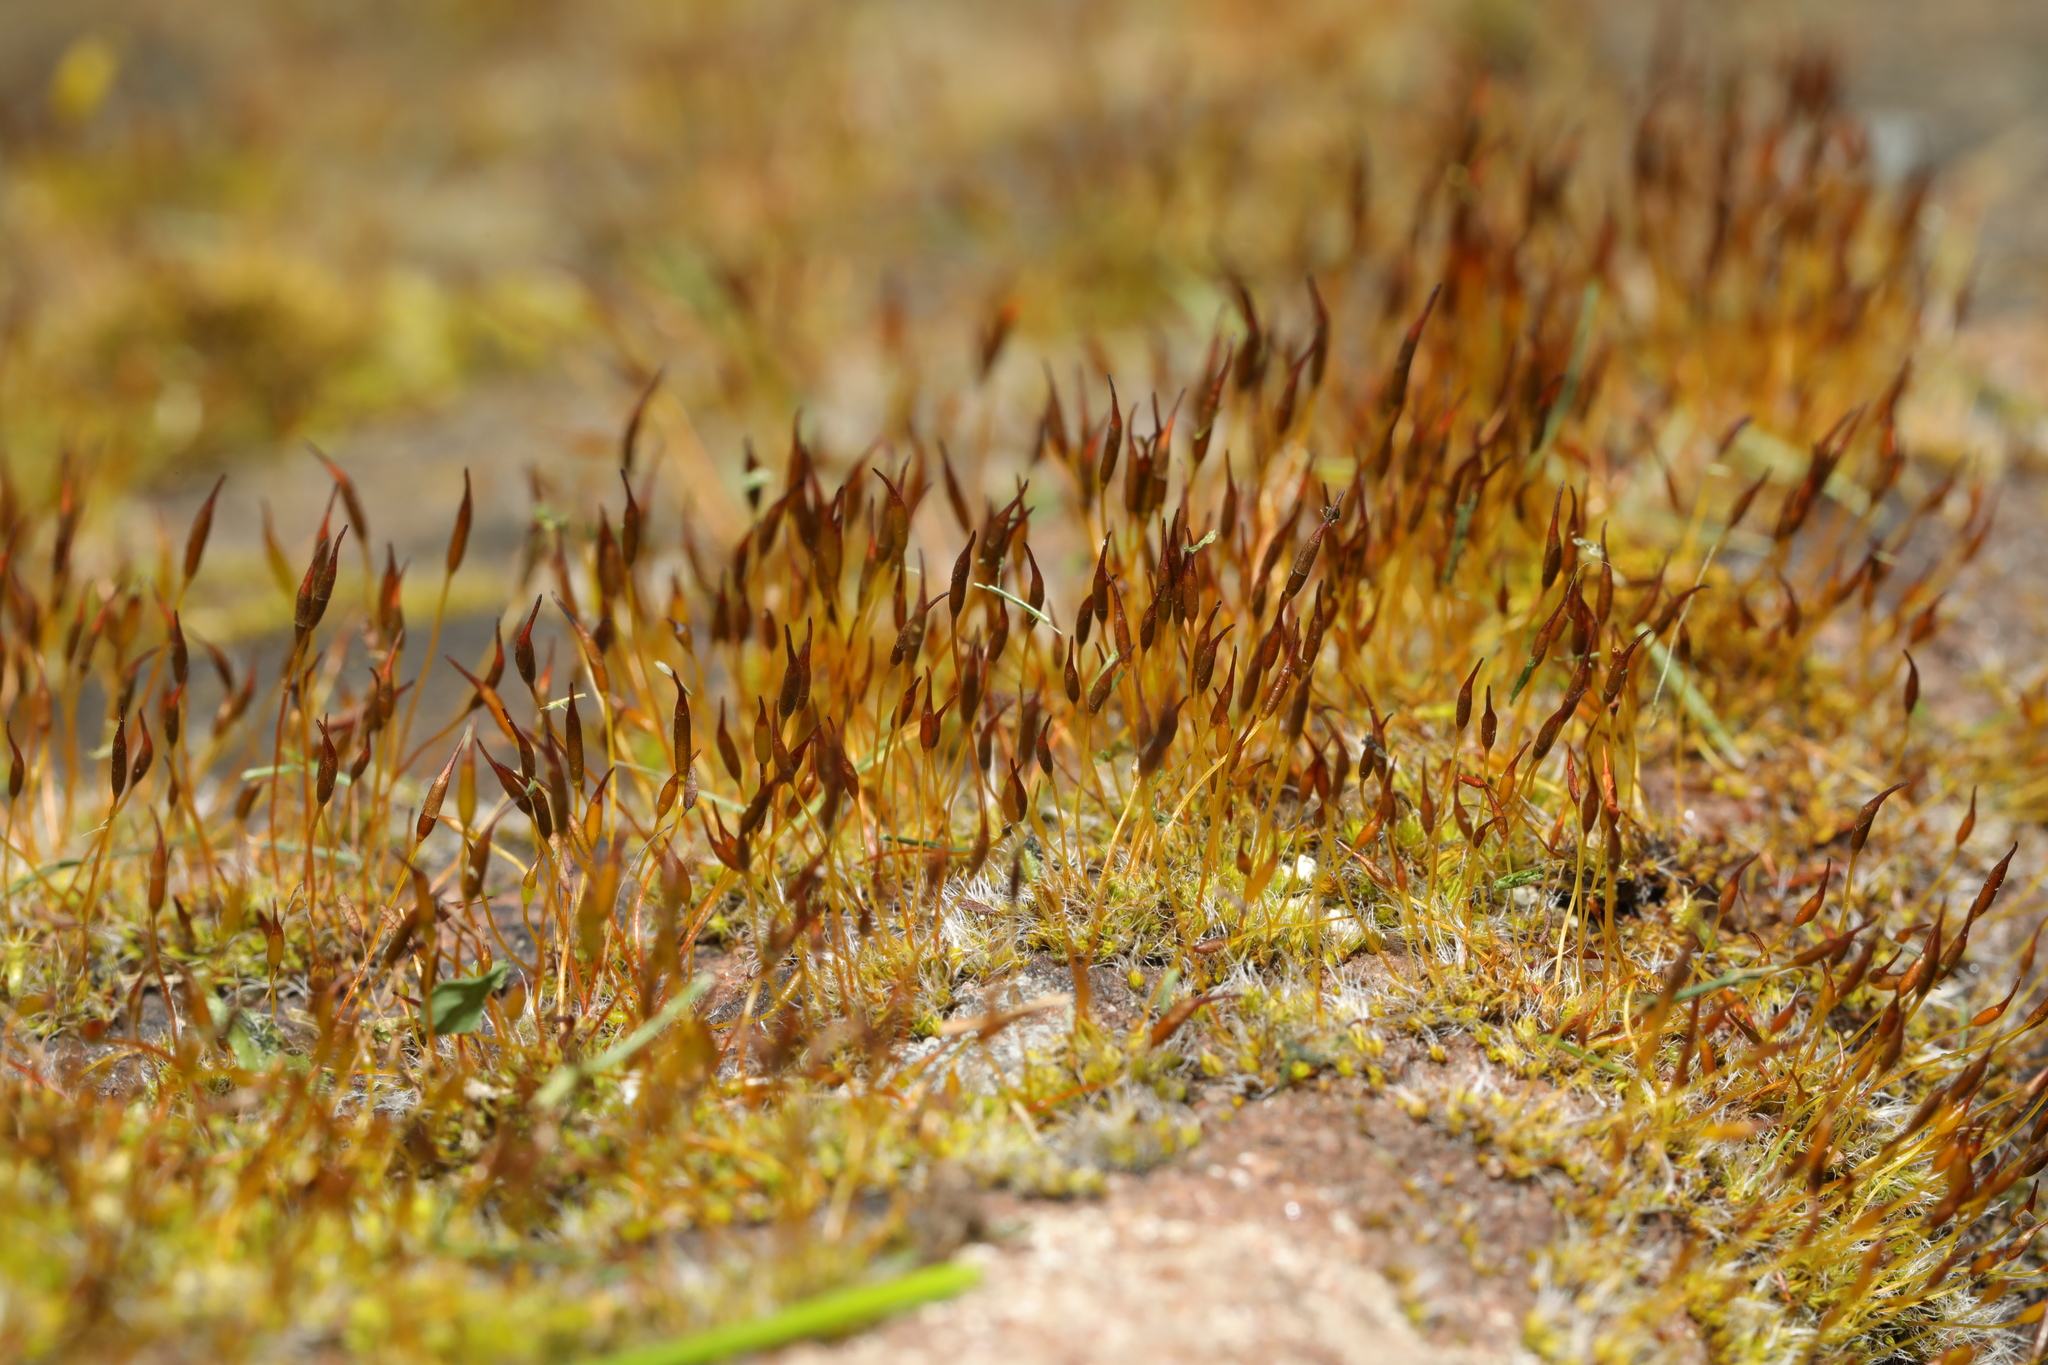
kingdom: Plantae
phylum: Bryophyta
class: Bryopsida
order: Pottiales
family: Pottiaceae
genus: Tortula
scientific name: Tortula muralis
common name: Wall screw-moss
